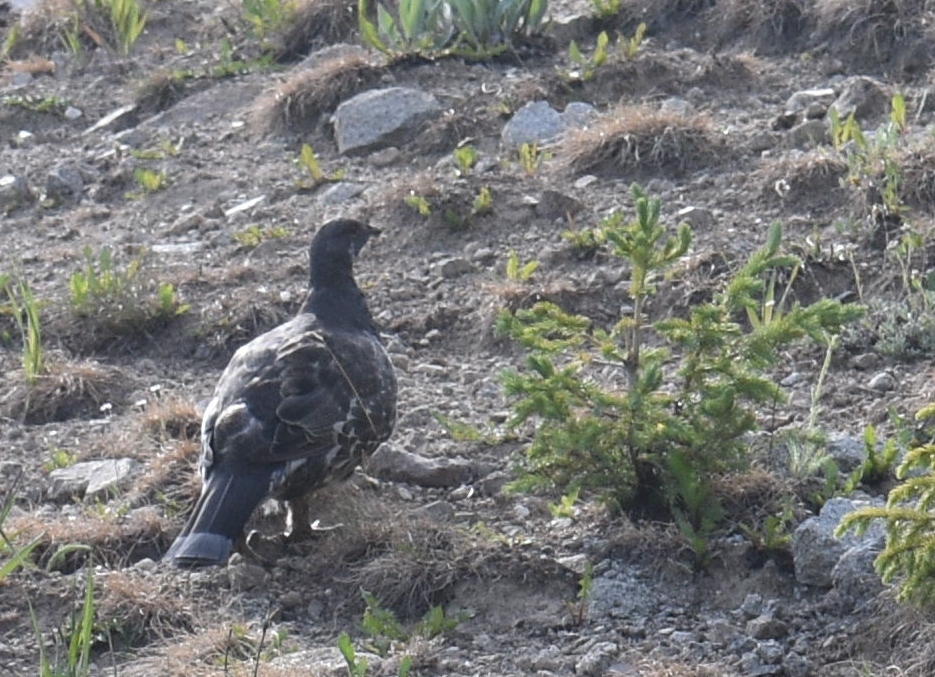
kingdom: Animalia
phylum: Chordata
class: Aves
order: Galliformes
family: Phasianidae
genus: Dendragapus
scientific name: Dendragapus obscurus
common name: Dusky grouse
